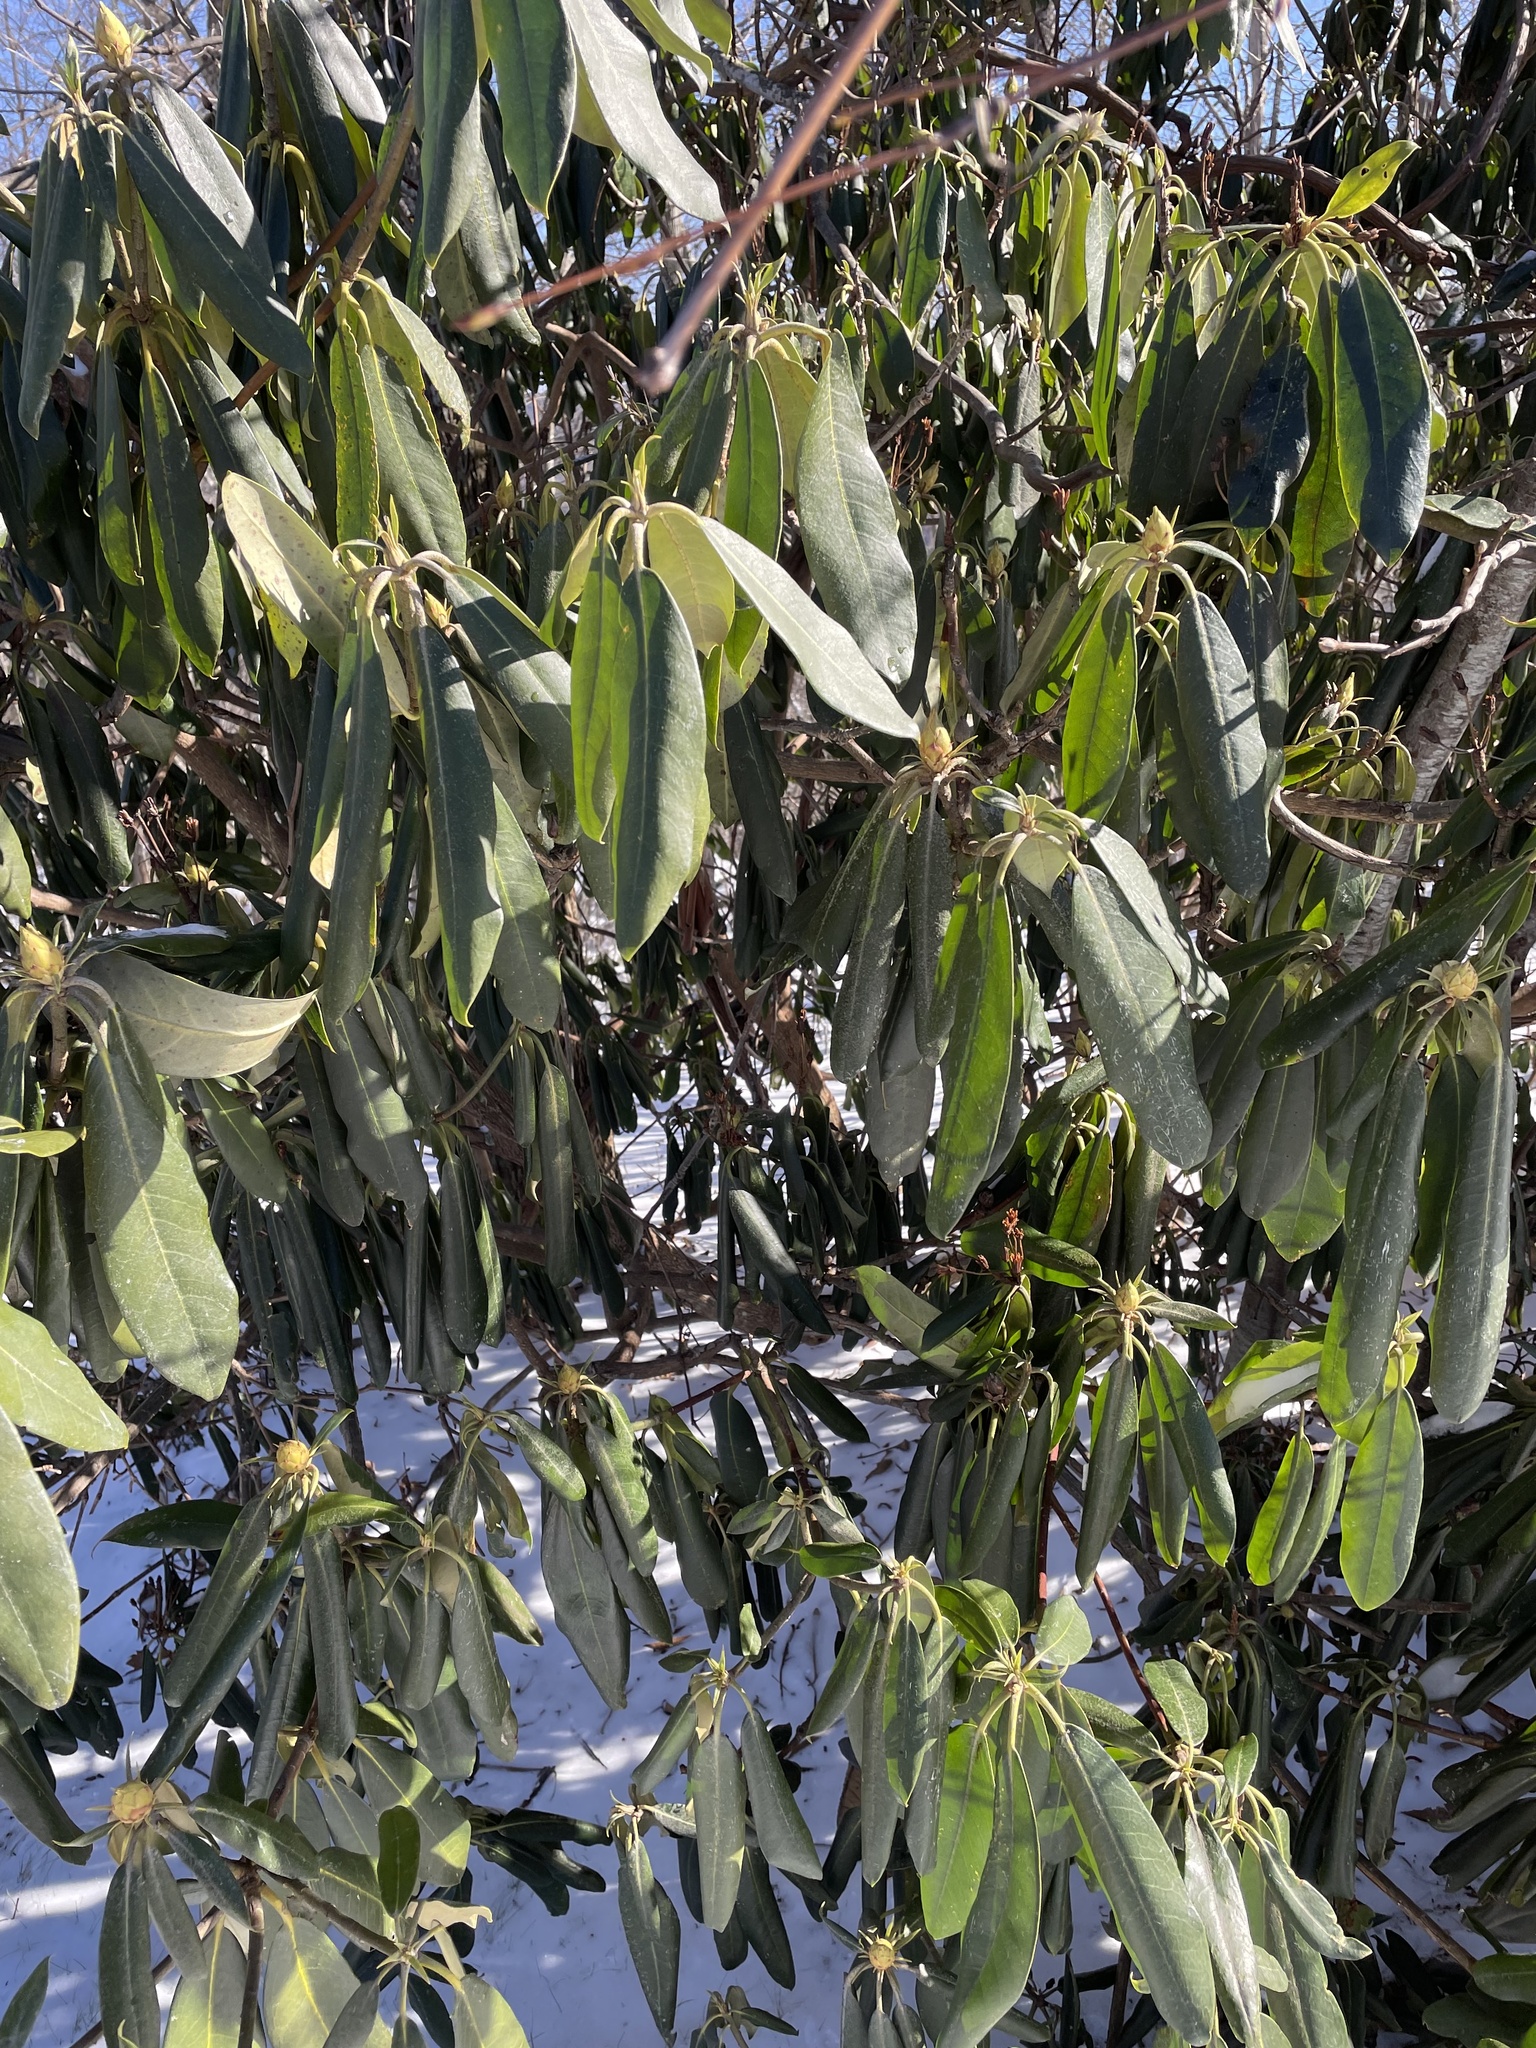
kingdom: Plantae
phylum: Tracheophyta
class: Magnoliopsida
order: Ericales
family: Ericaceae
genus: Rhododendron
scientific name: Rhododendron maximum
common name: Great rhododendron
